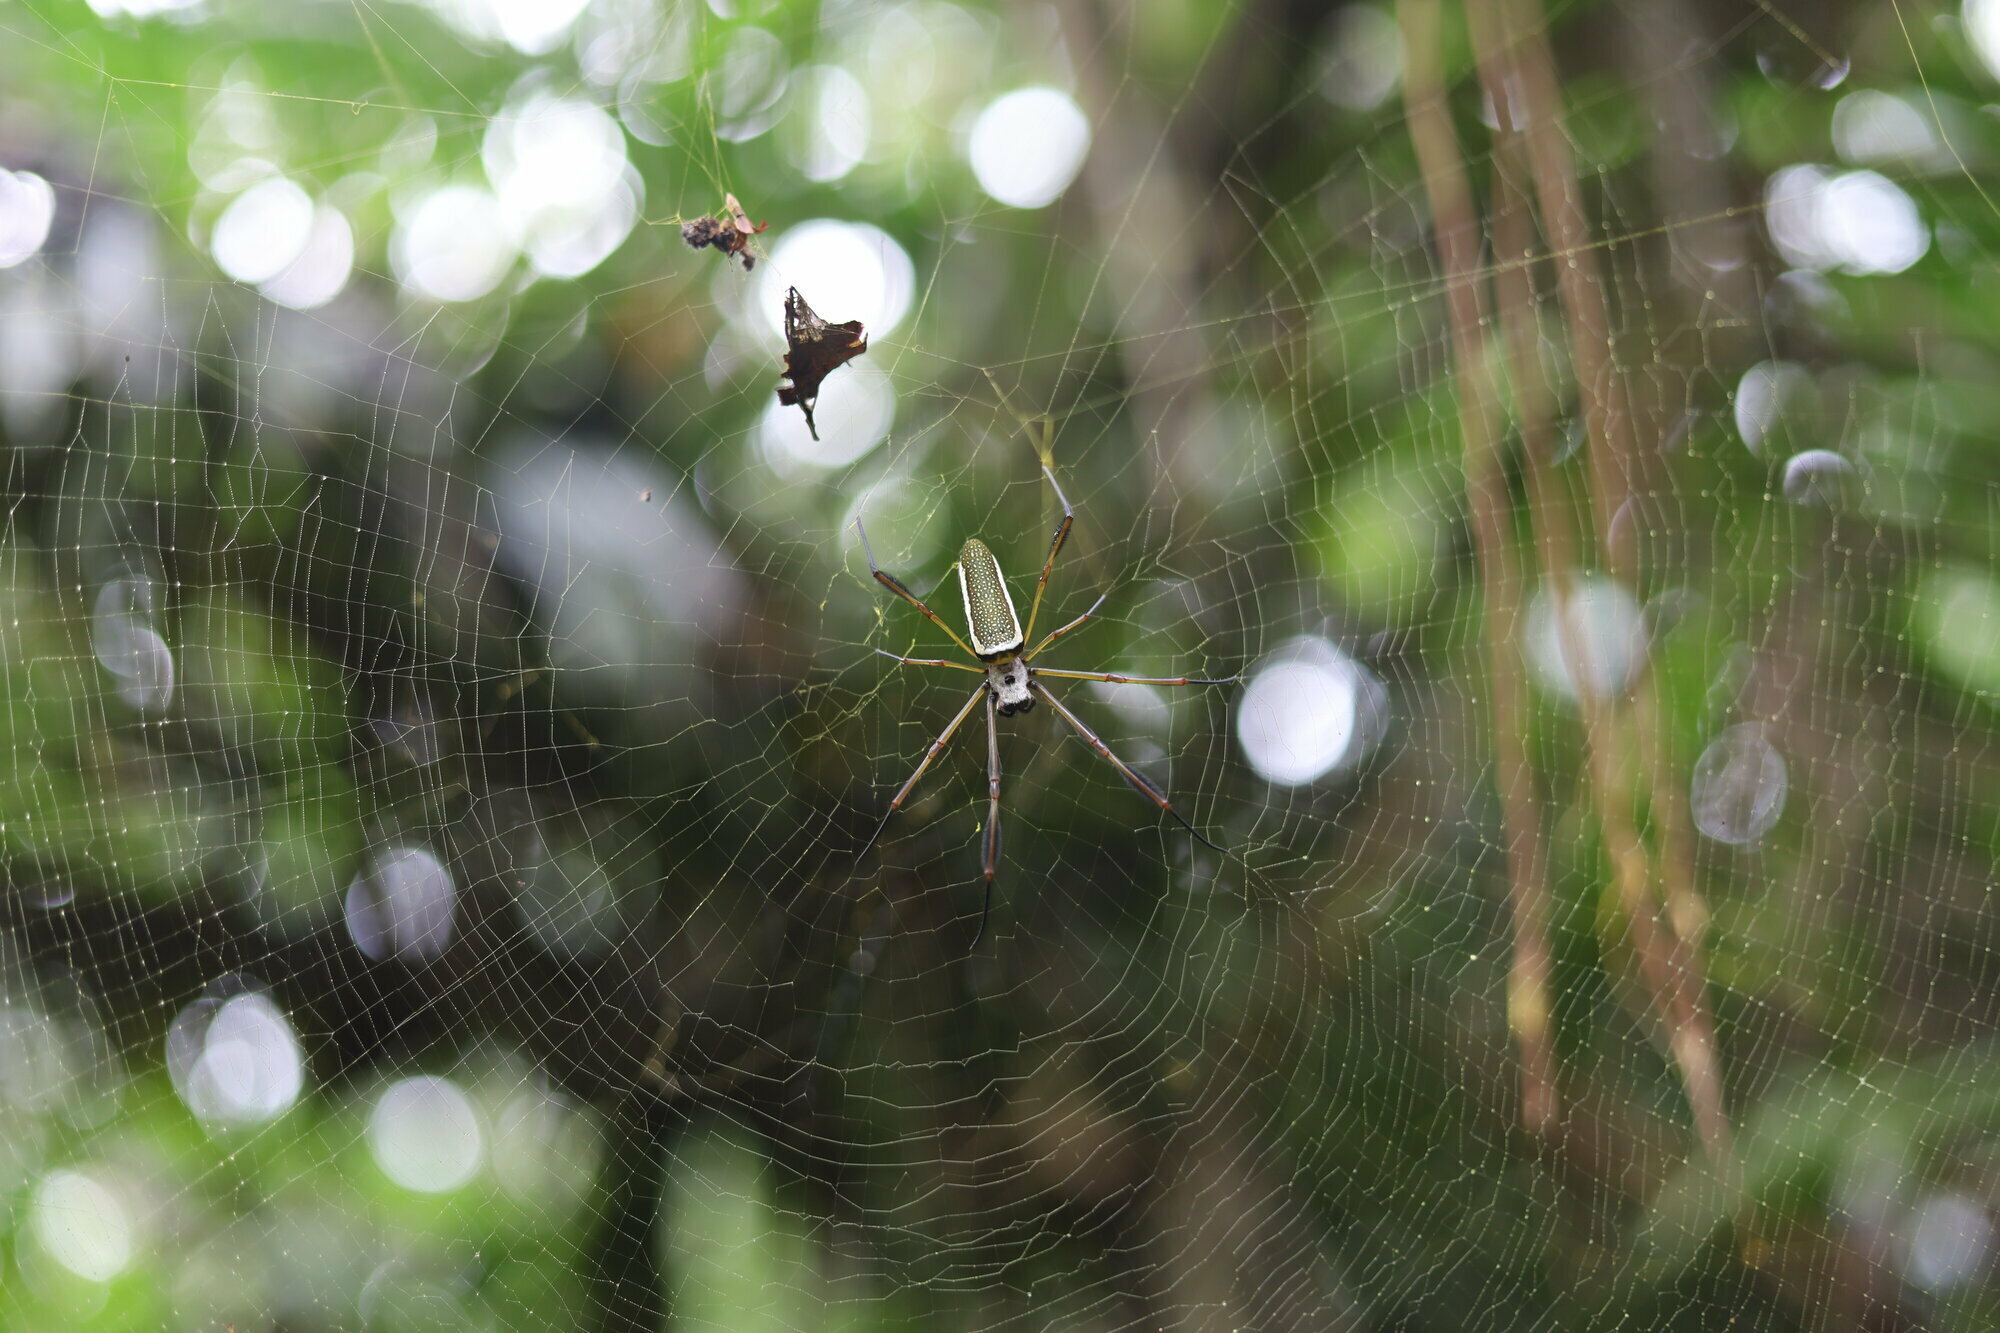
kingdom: Animalia
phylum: Arthropoda
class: Arachnida
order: Araneae
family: Araneidae
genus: Trichonephila
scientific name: Trichonephila clavipes
